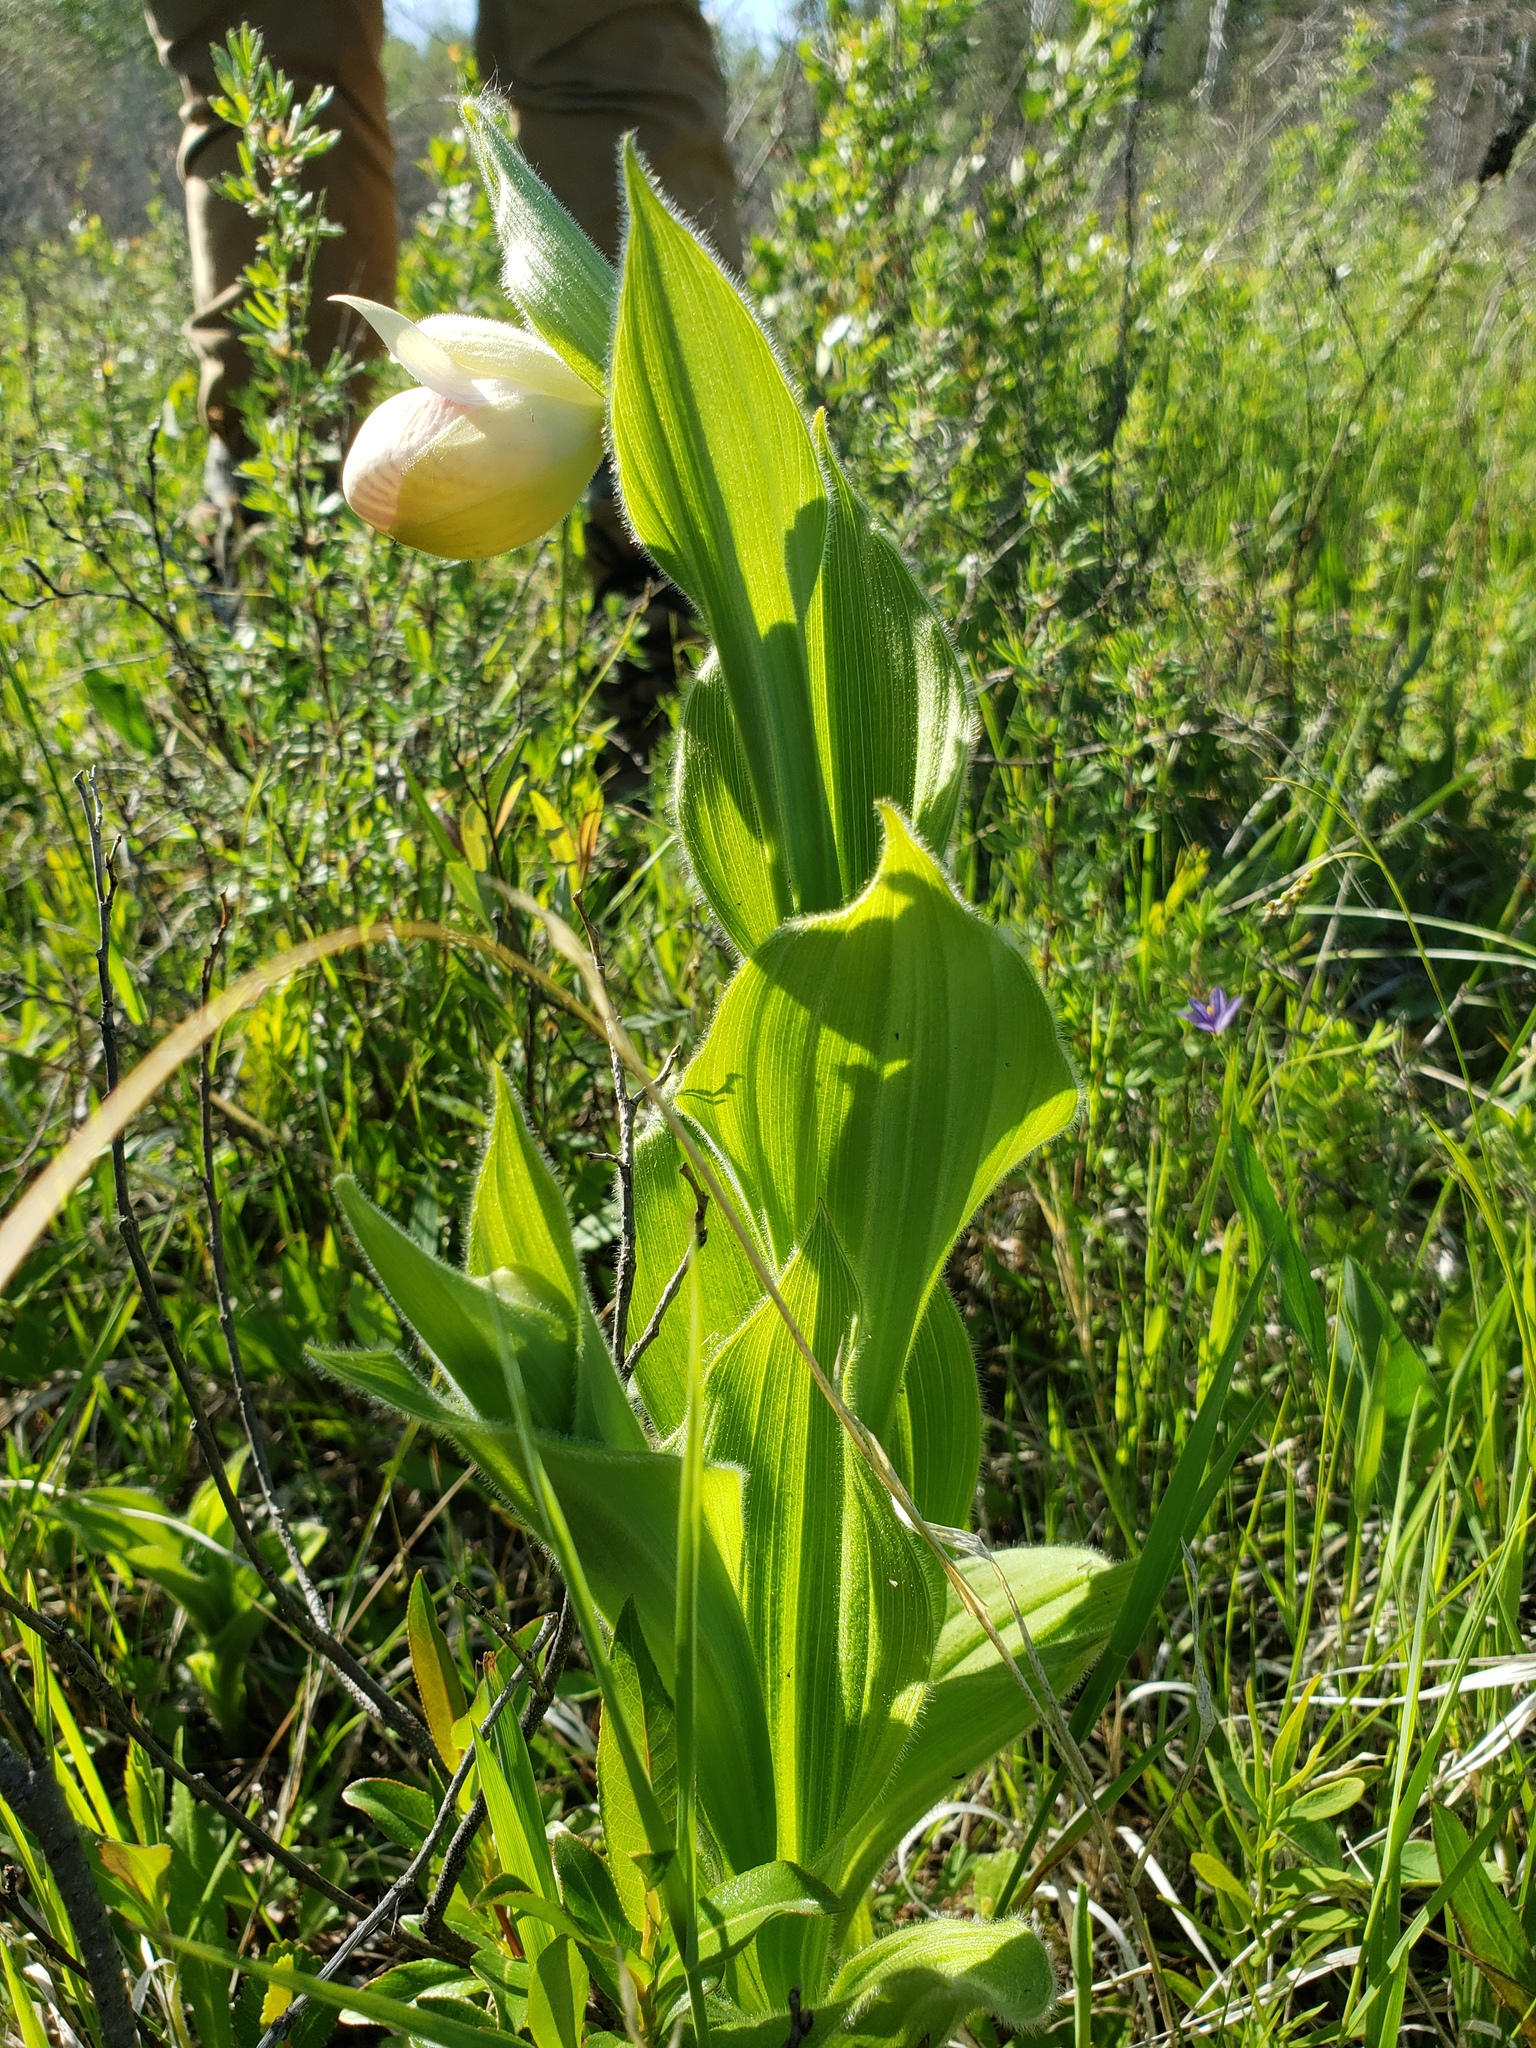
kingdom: Plantae
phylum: Tracheophyta
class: Liliopsida
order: Asparagales
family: Orchidaceae
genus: Cypripedium
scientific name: Cypripedium reginae
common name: Queen lady's-slipper
